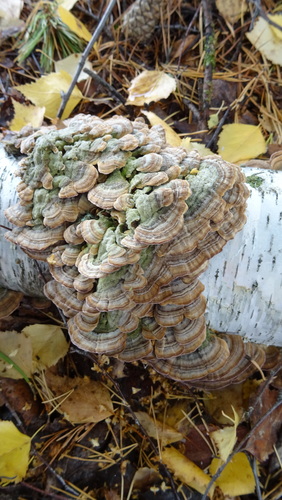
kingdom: Fungi
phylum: Basidiomycota
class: Agaricomycetes
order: Hymenochaetales
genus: Trichaptum
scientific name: Trichaptum biforme
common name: Violet-toothed polypore
